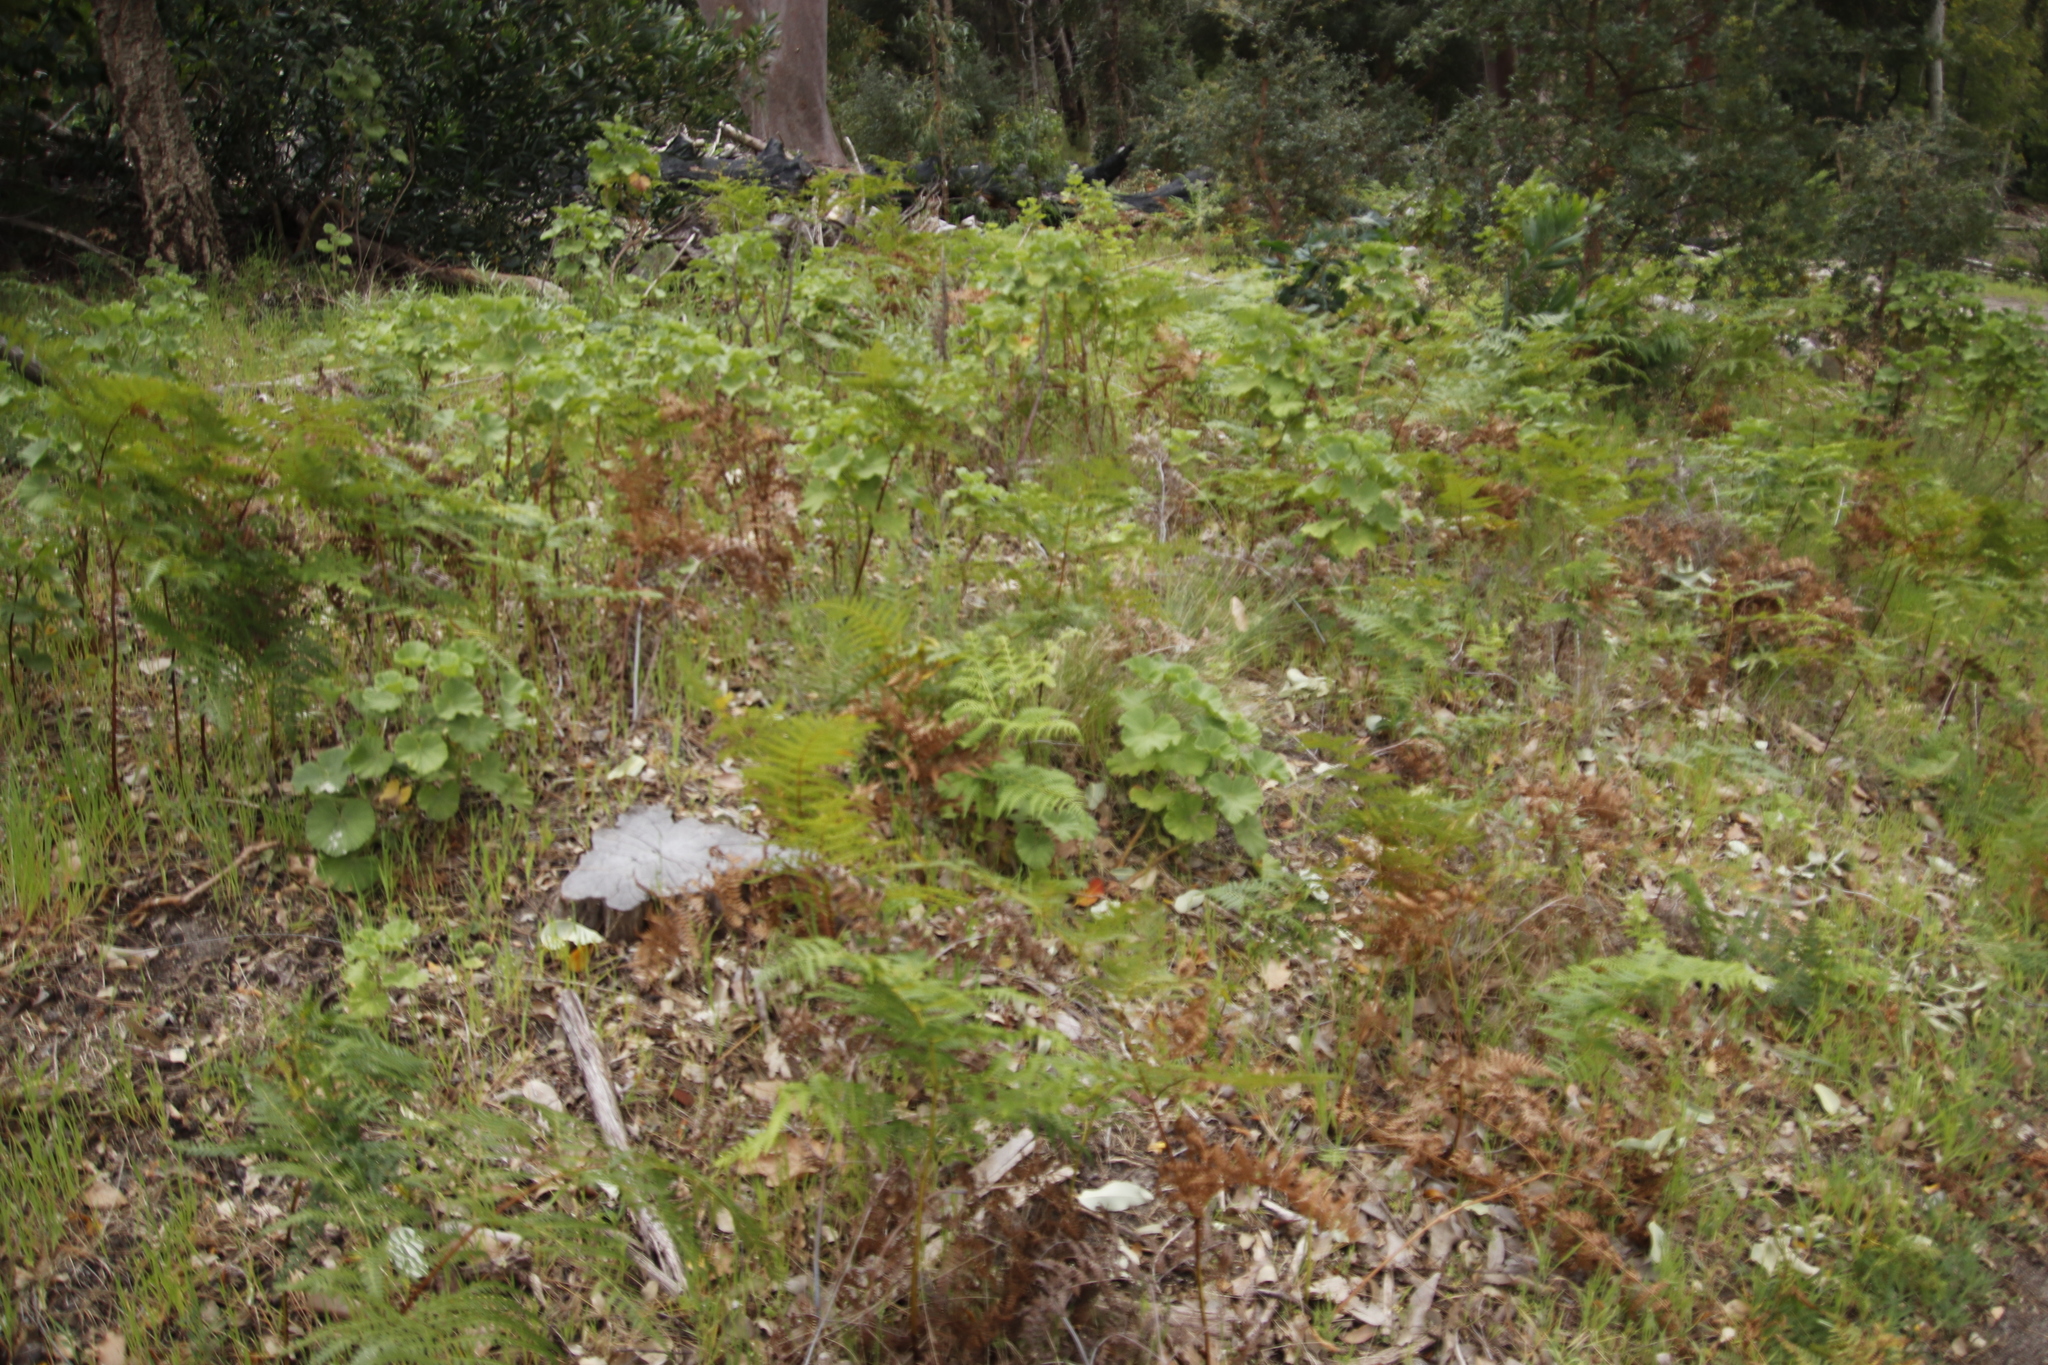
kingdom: Plantae
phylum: Tracheophyta
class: Magnoliopsida
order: Geraniales
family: Geraniaceae
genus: Pelargonium
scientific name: Pelargonium cucullatum
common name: Tree pelargonium
